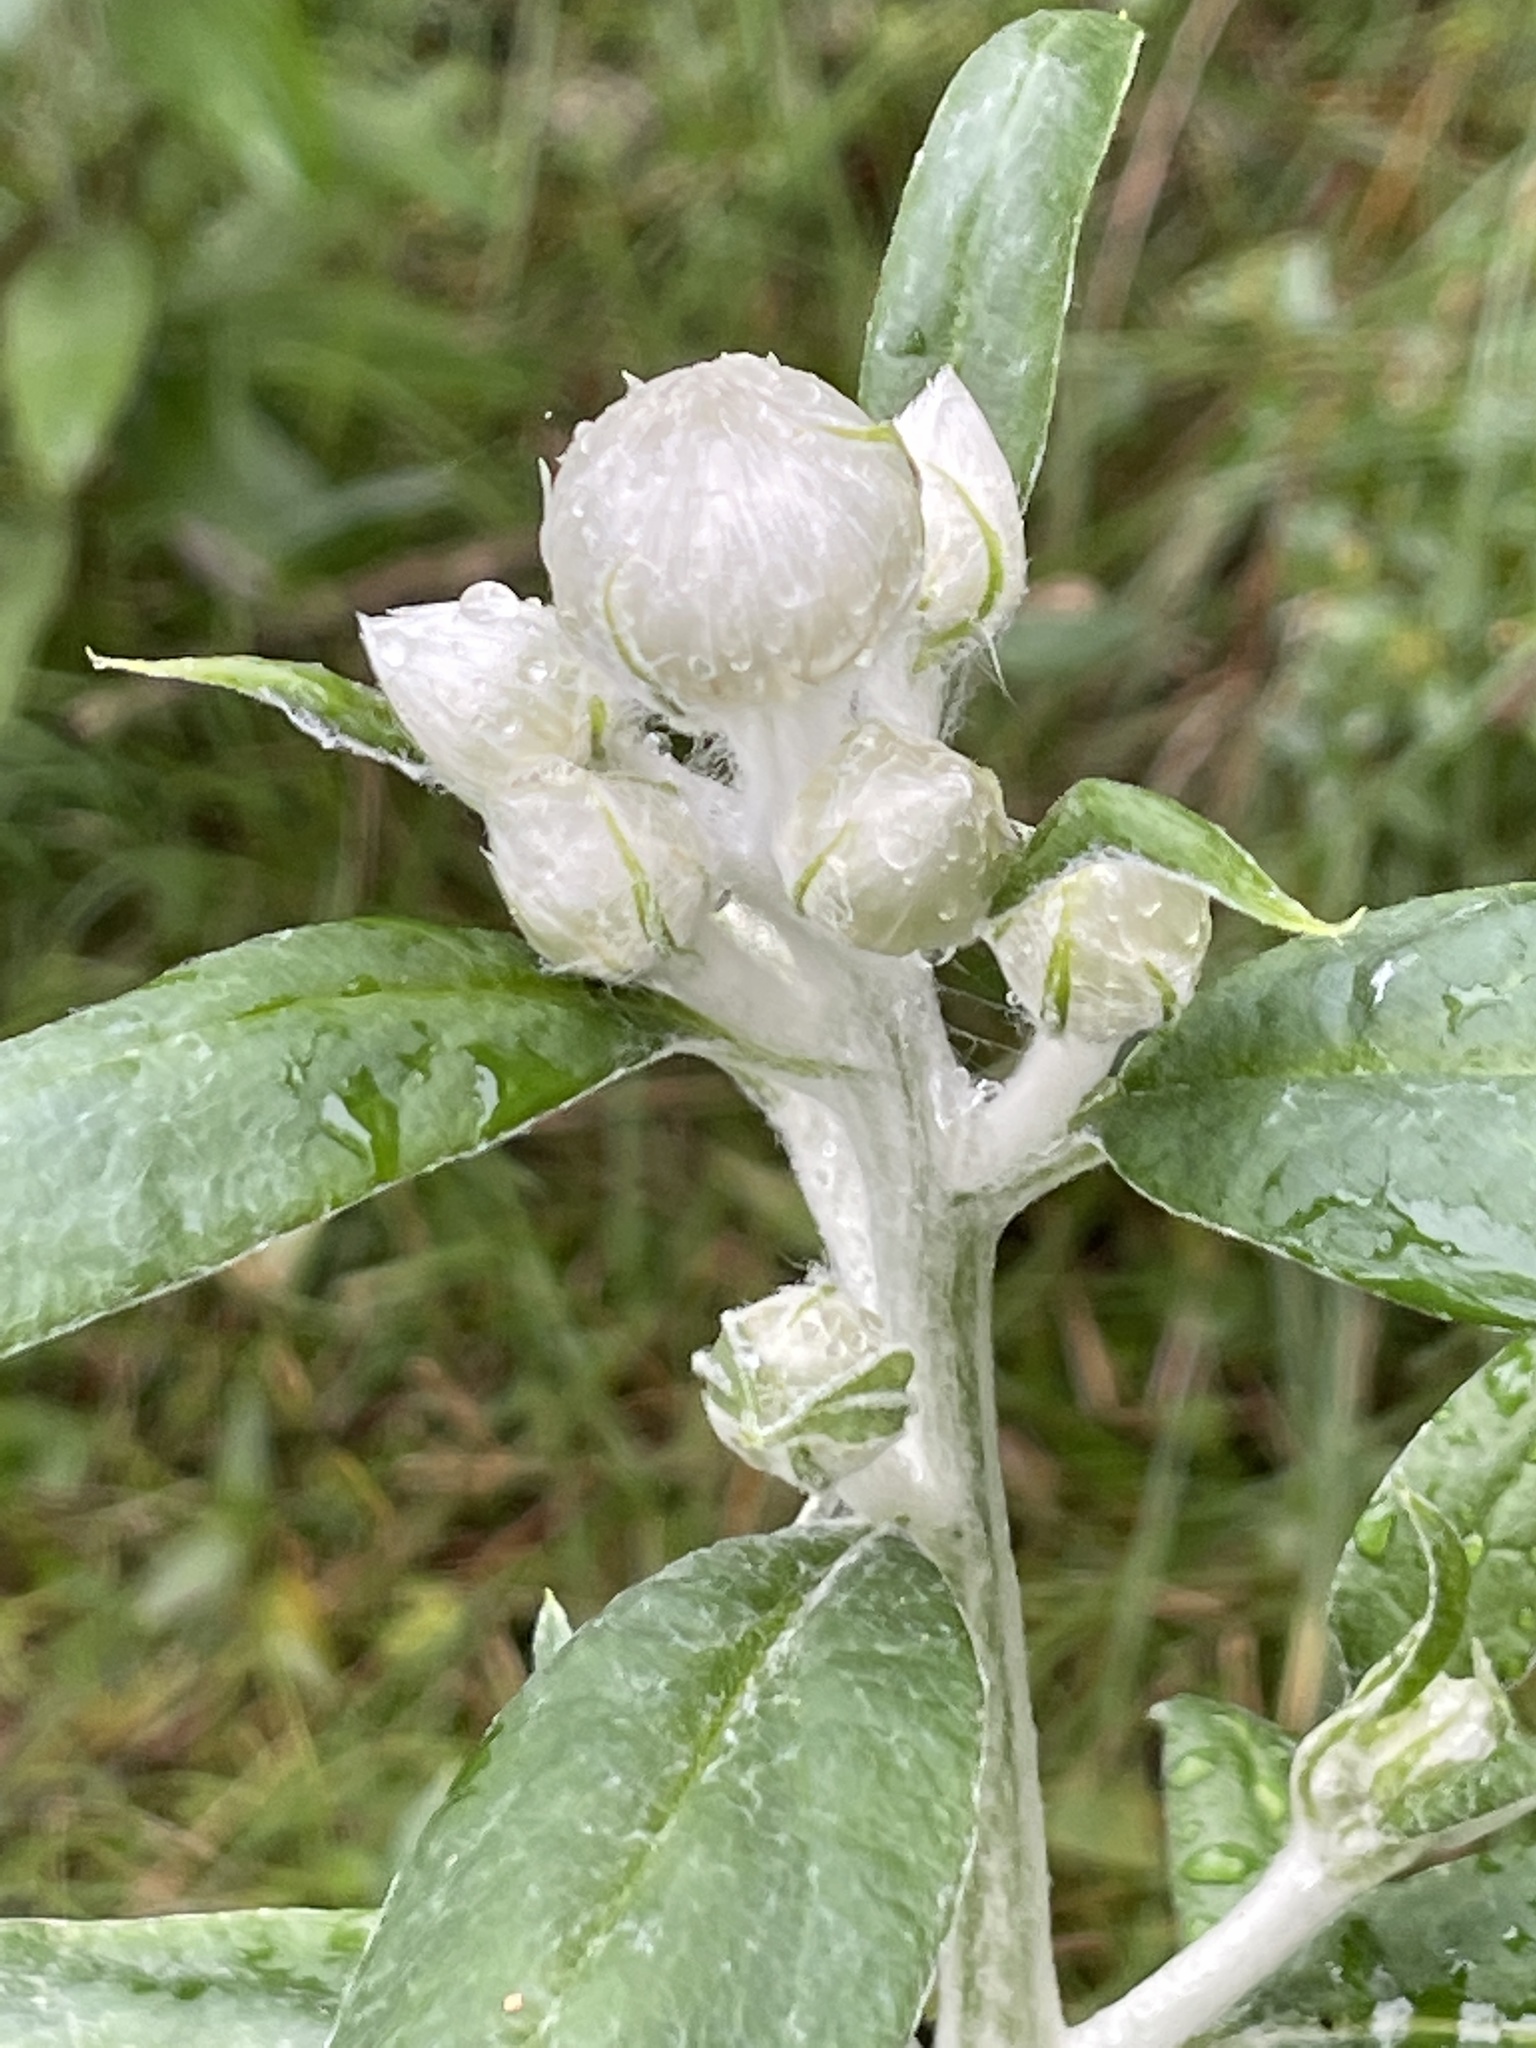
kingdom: Plantae
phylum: Tracheophyta
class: Magnoliopsida
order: Asterales
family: Asteraceae
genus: Leucozoma
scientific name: Leucozoma elatum
